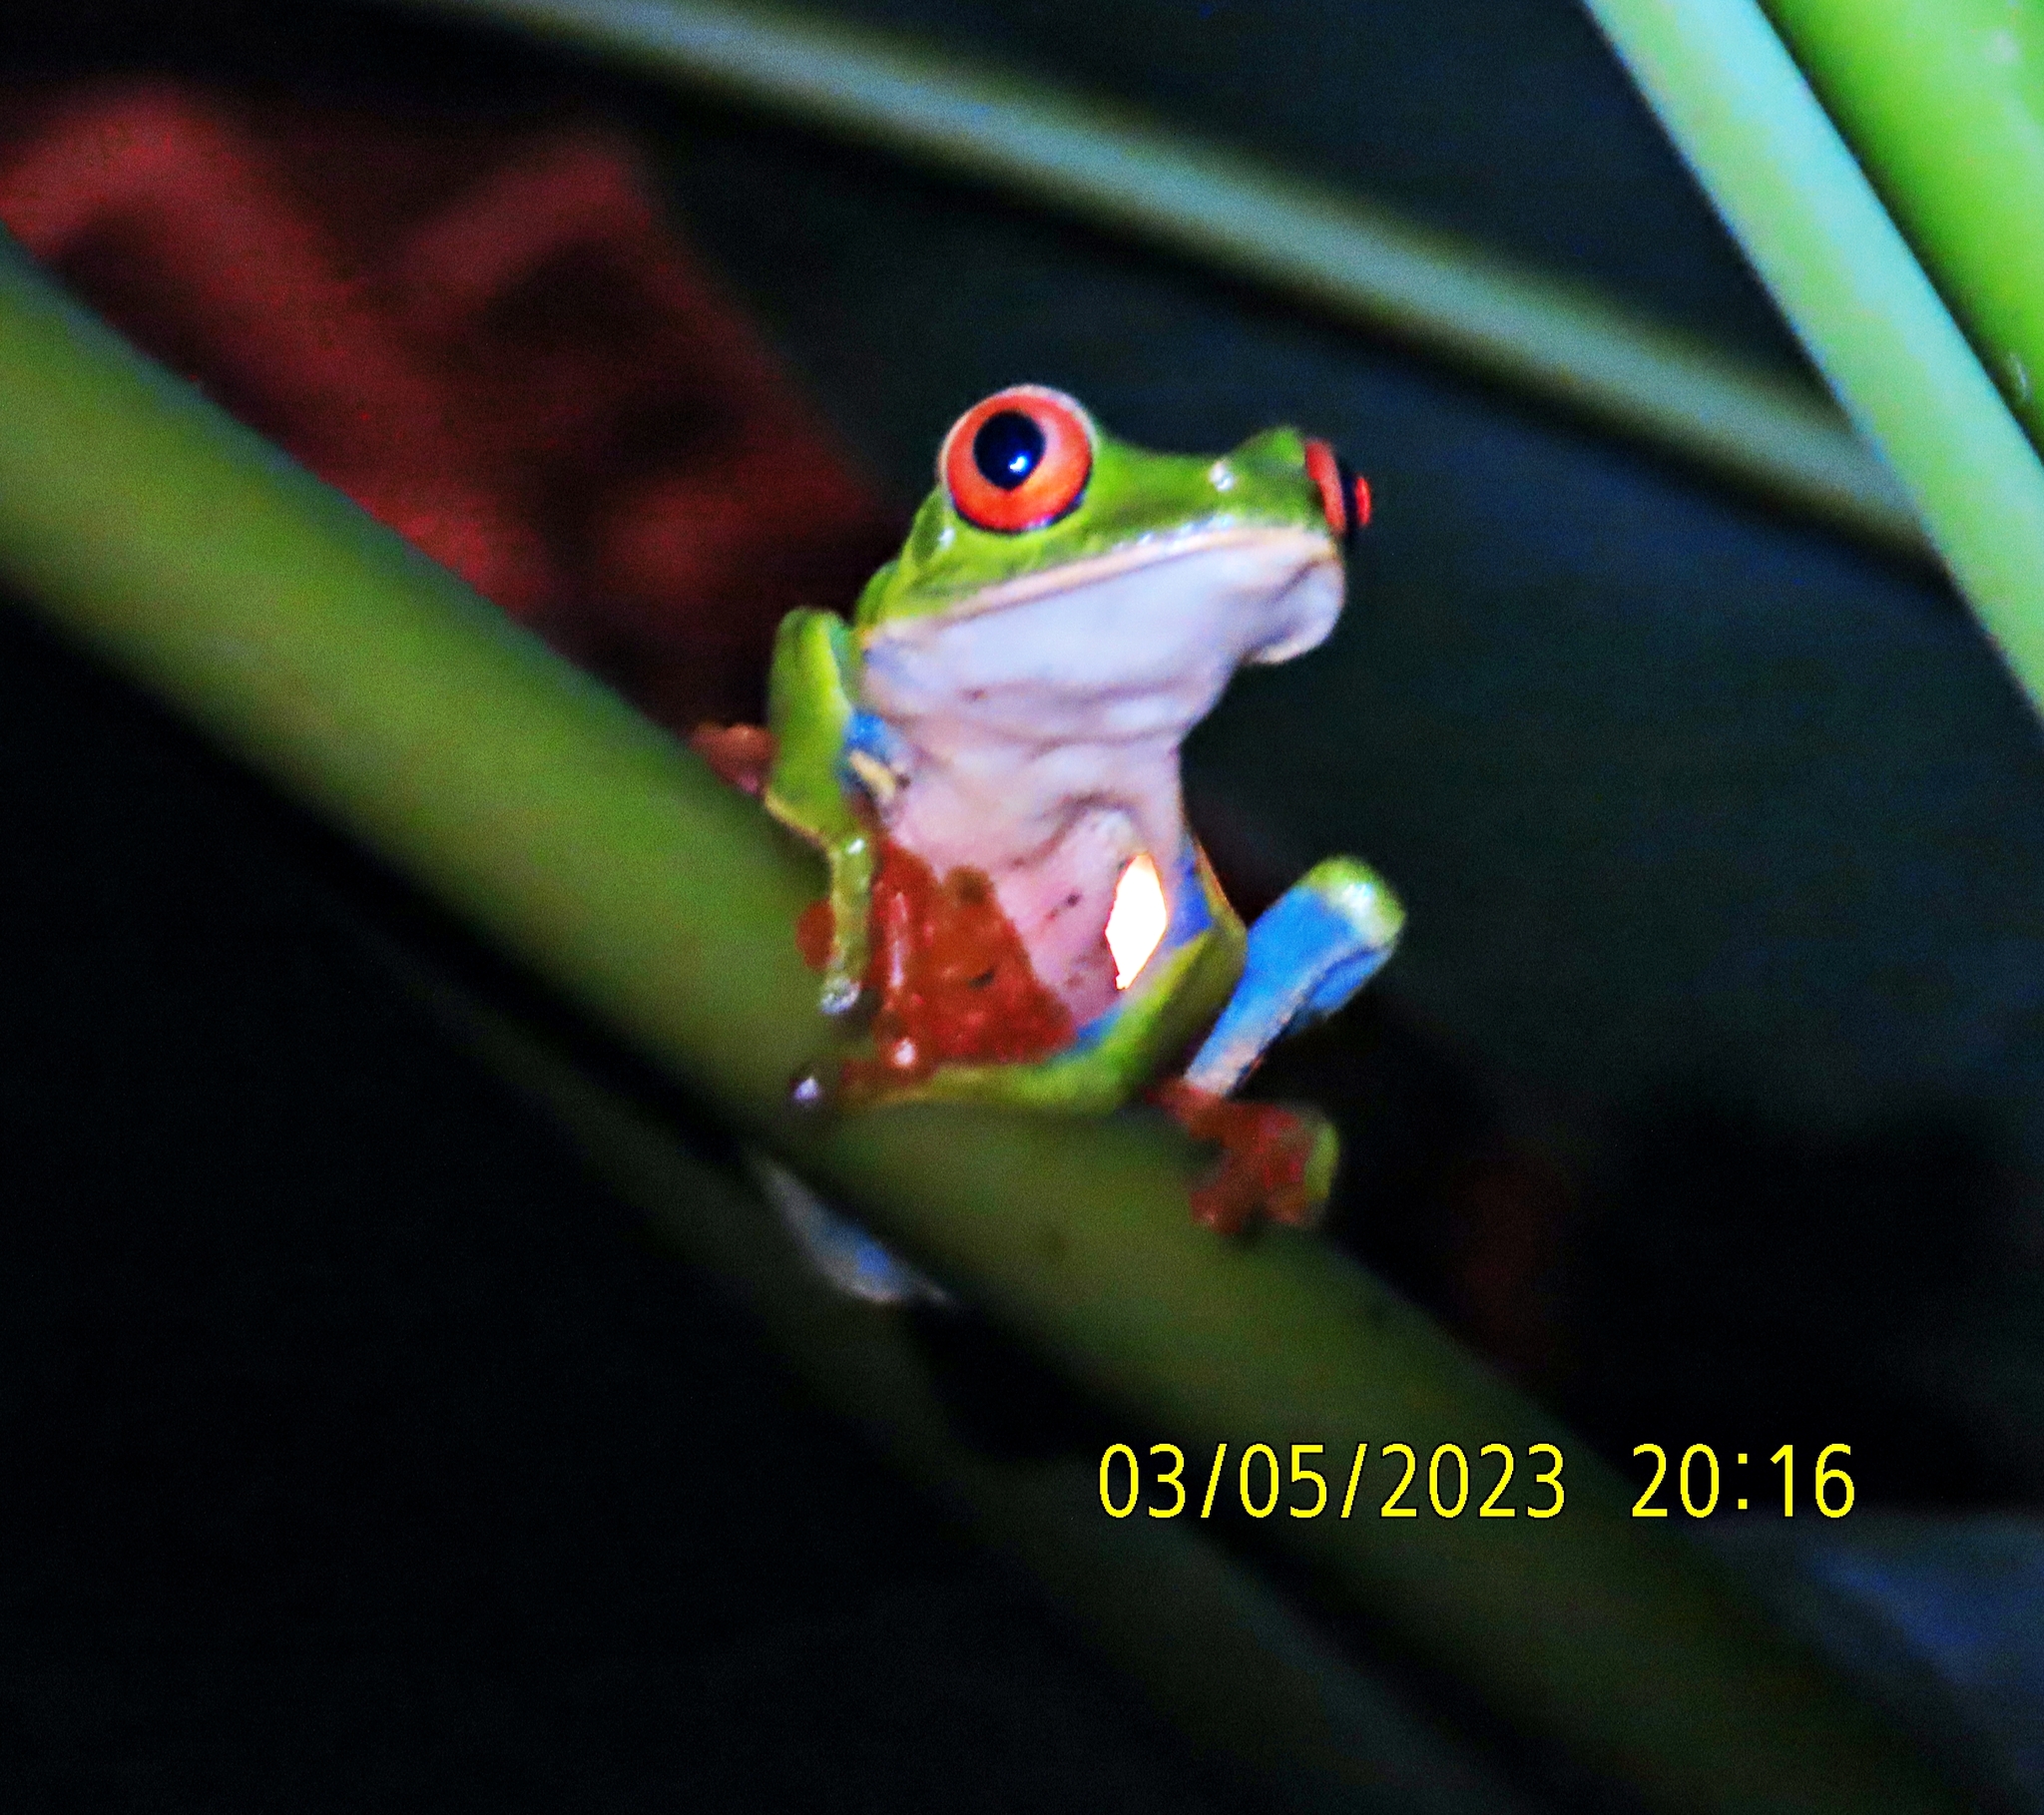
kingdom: Animalia
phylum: Chordata
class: Amphibia
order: Anura
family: Phyllomedusidae
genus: Agalychnis
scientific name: Agalychnis callidryas
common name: Red-eyed treefrog
